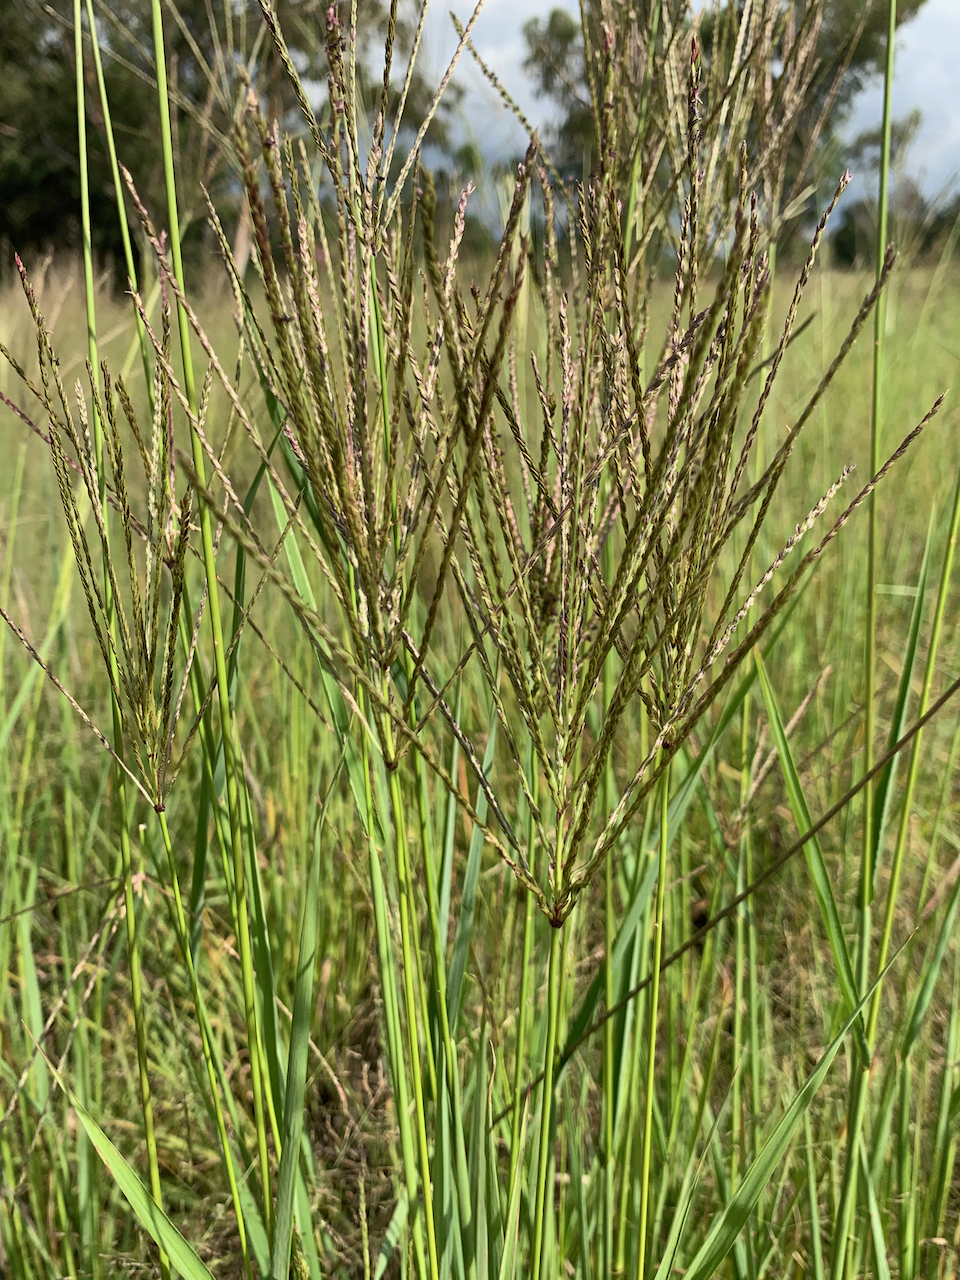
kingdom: Plantae
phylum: Tracheophyta
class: Liliopsida
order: Poales
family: Poaceae
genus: Chloris
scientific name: Chloris gayana
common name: Rhodes grass
